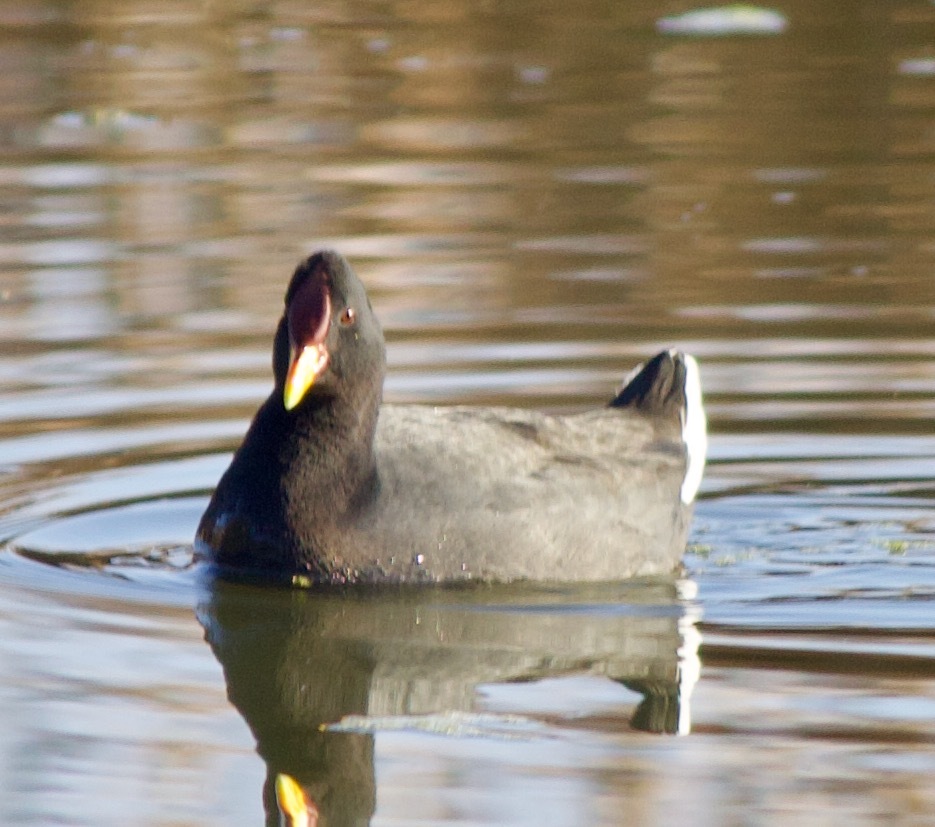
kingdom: Animalia
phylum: Chordata
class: Aves
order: Gruiformes
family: Rallidae
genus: Fulica
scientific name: Fulica rufifrons
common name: Red-fronted coot
